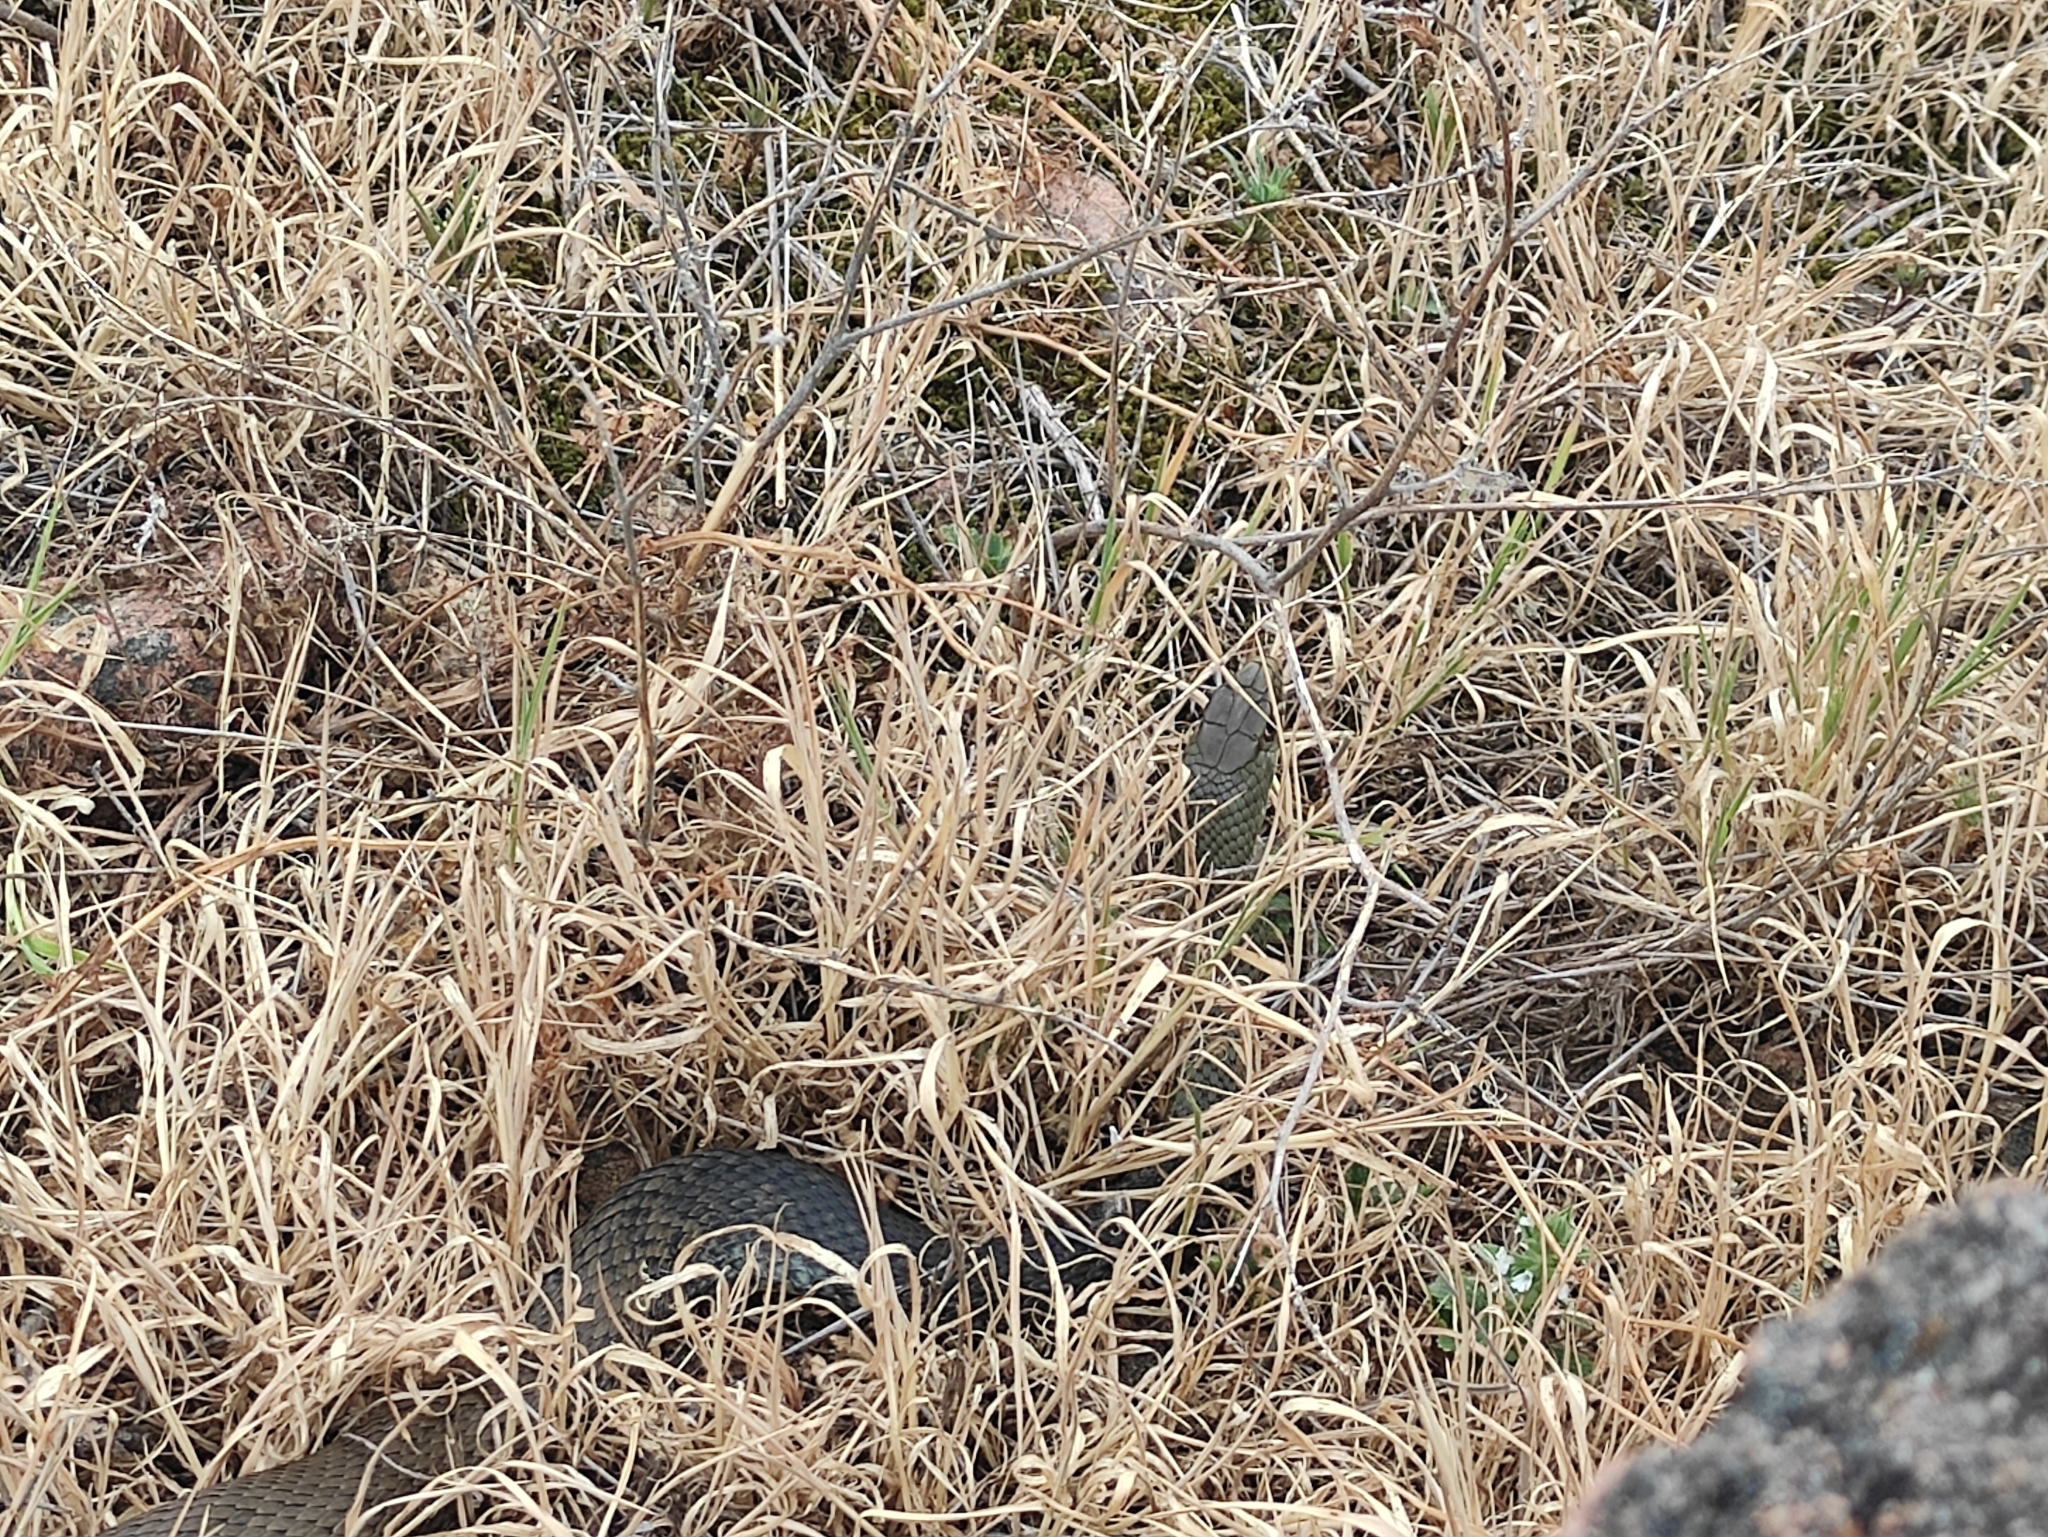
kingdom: Animalia
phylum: Chordata
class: Squamata
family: Psammophiidae
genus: Malpolon
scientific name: Malpolon monspessulanus
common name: Montpellier snake
